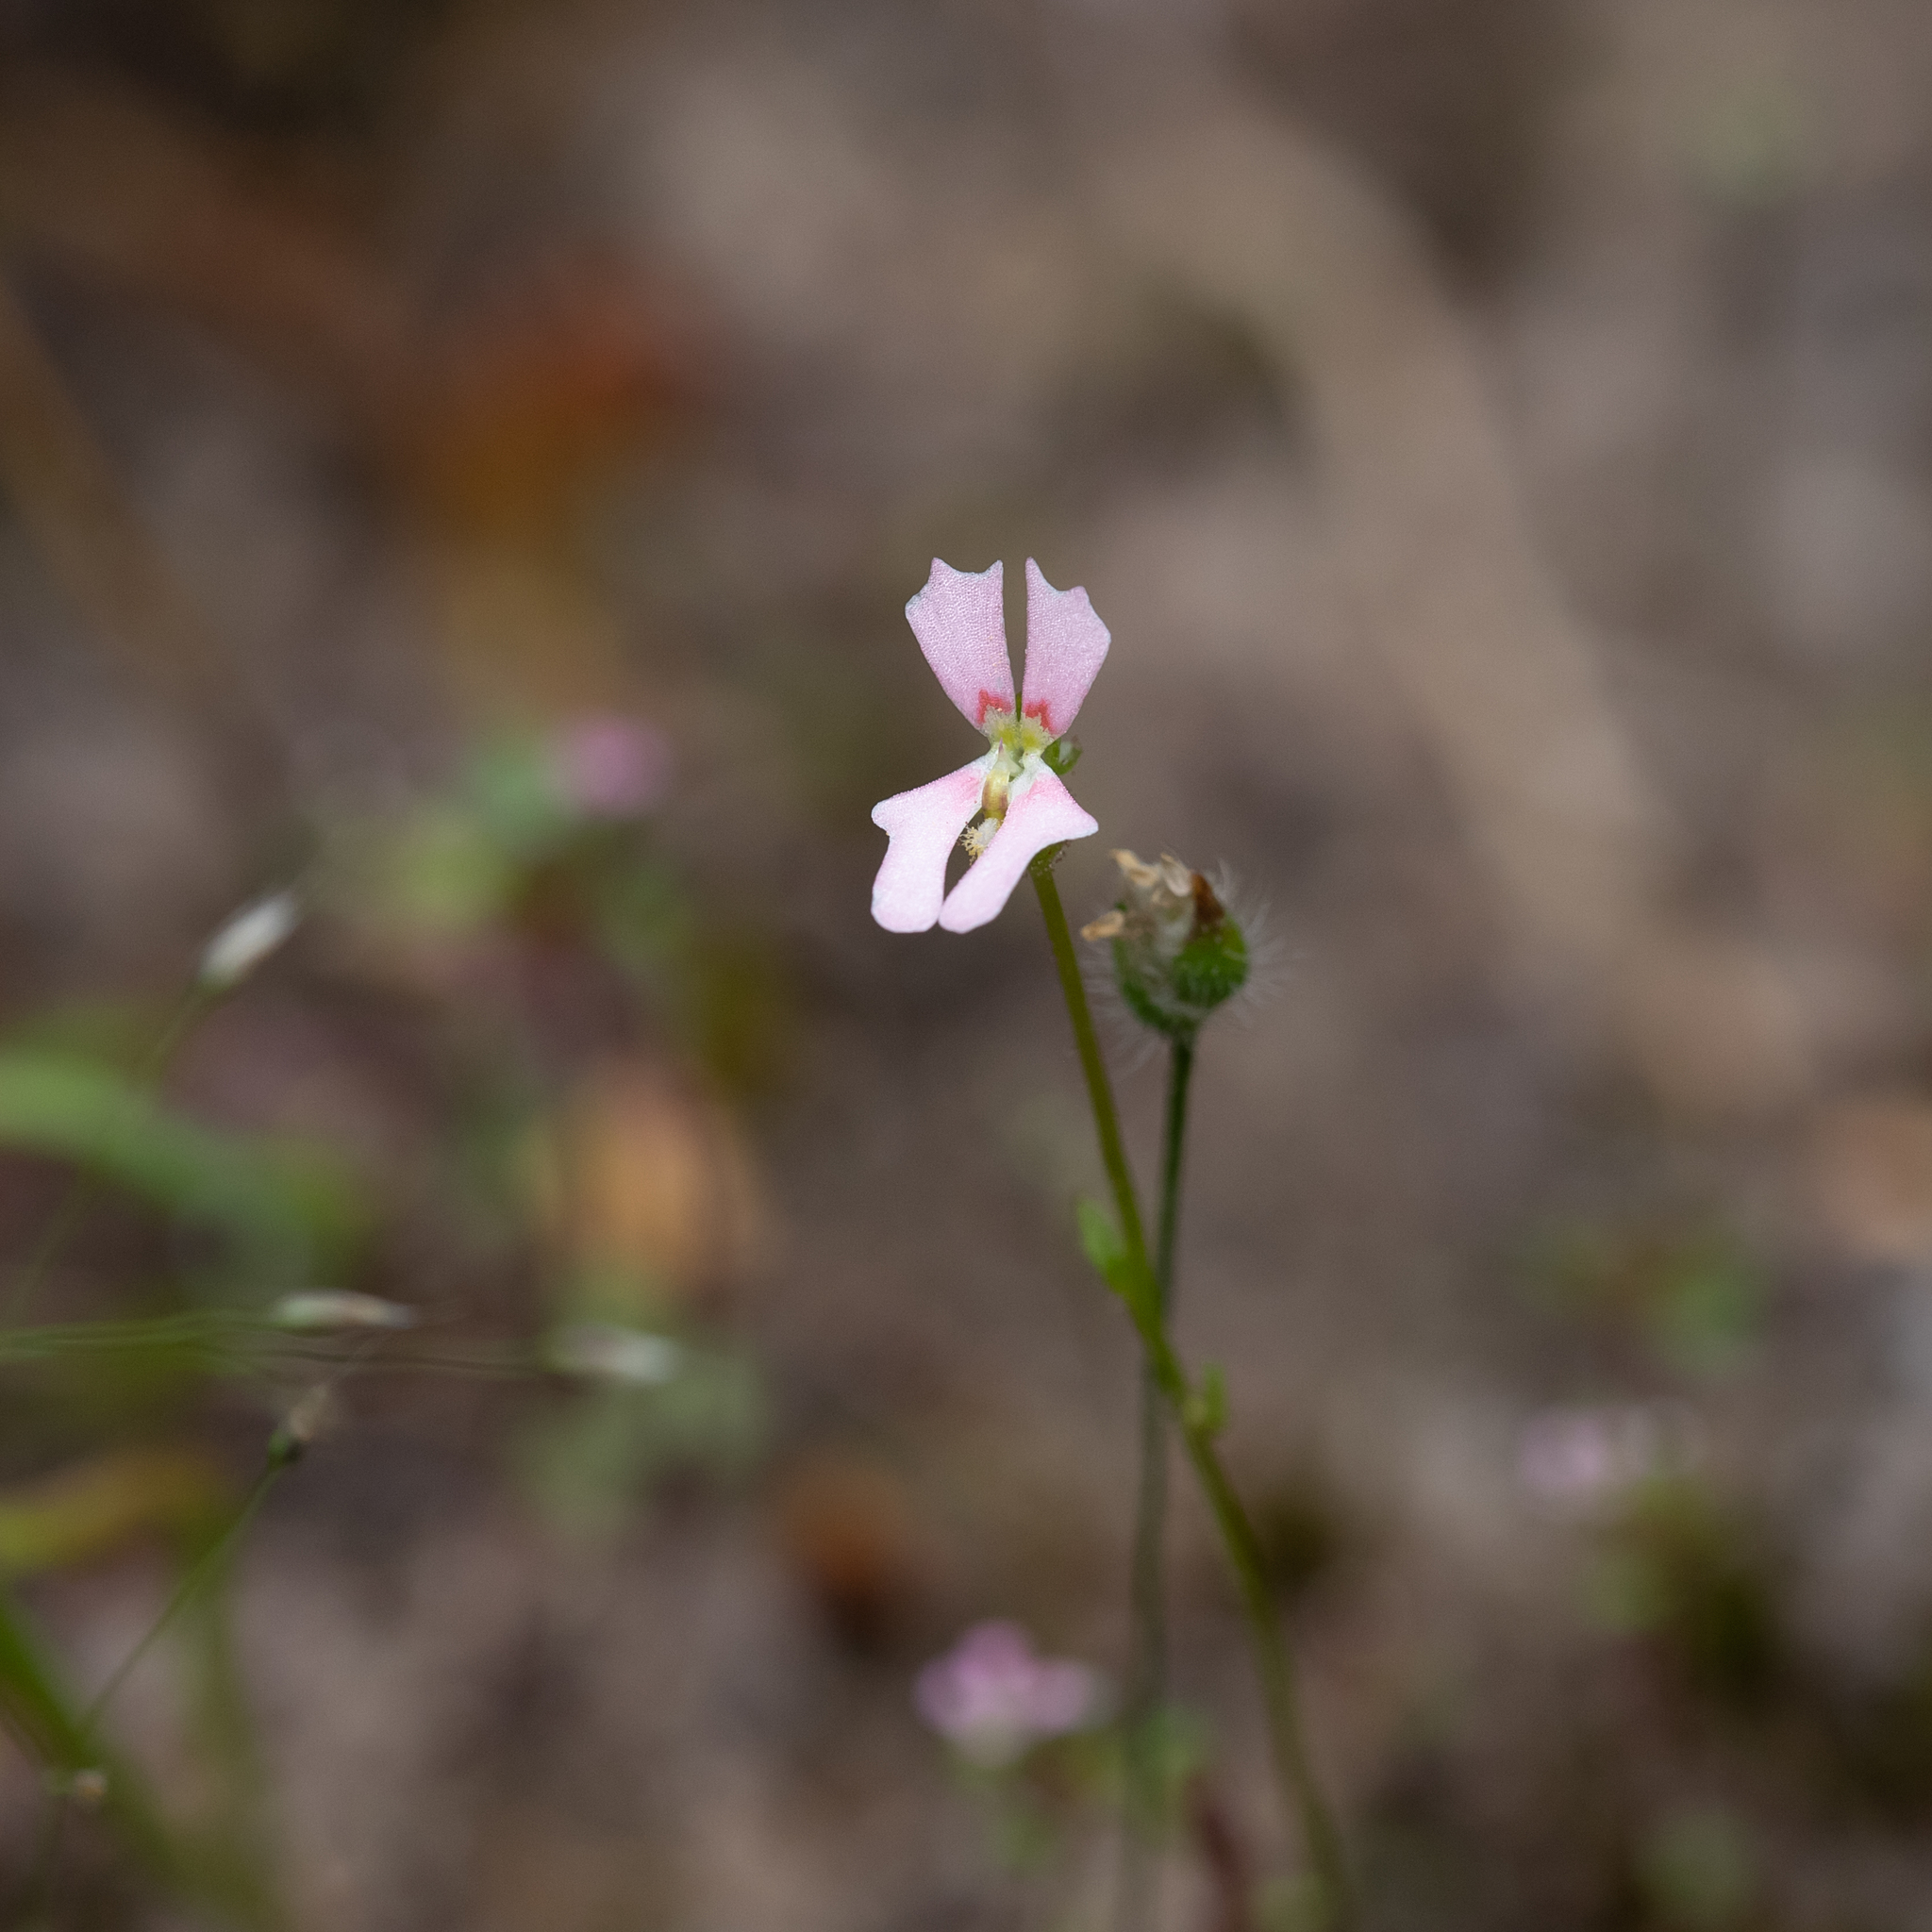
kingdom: Plantae
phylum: Tracheophyta
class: Magnoliopsida
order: Asterales
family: Stylidiaceae
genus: Stylidium
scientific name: Stylidium calcaratum
